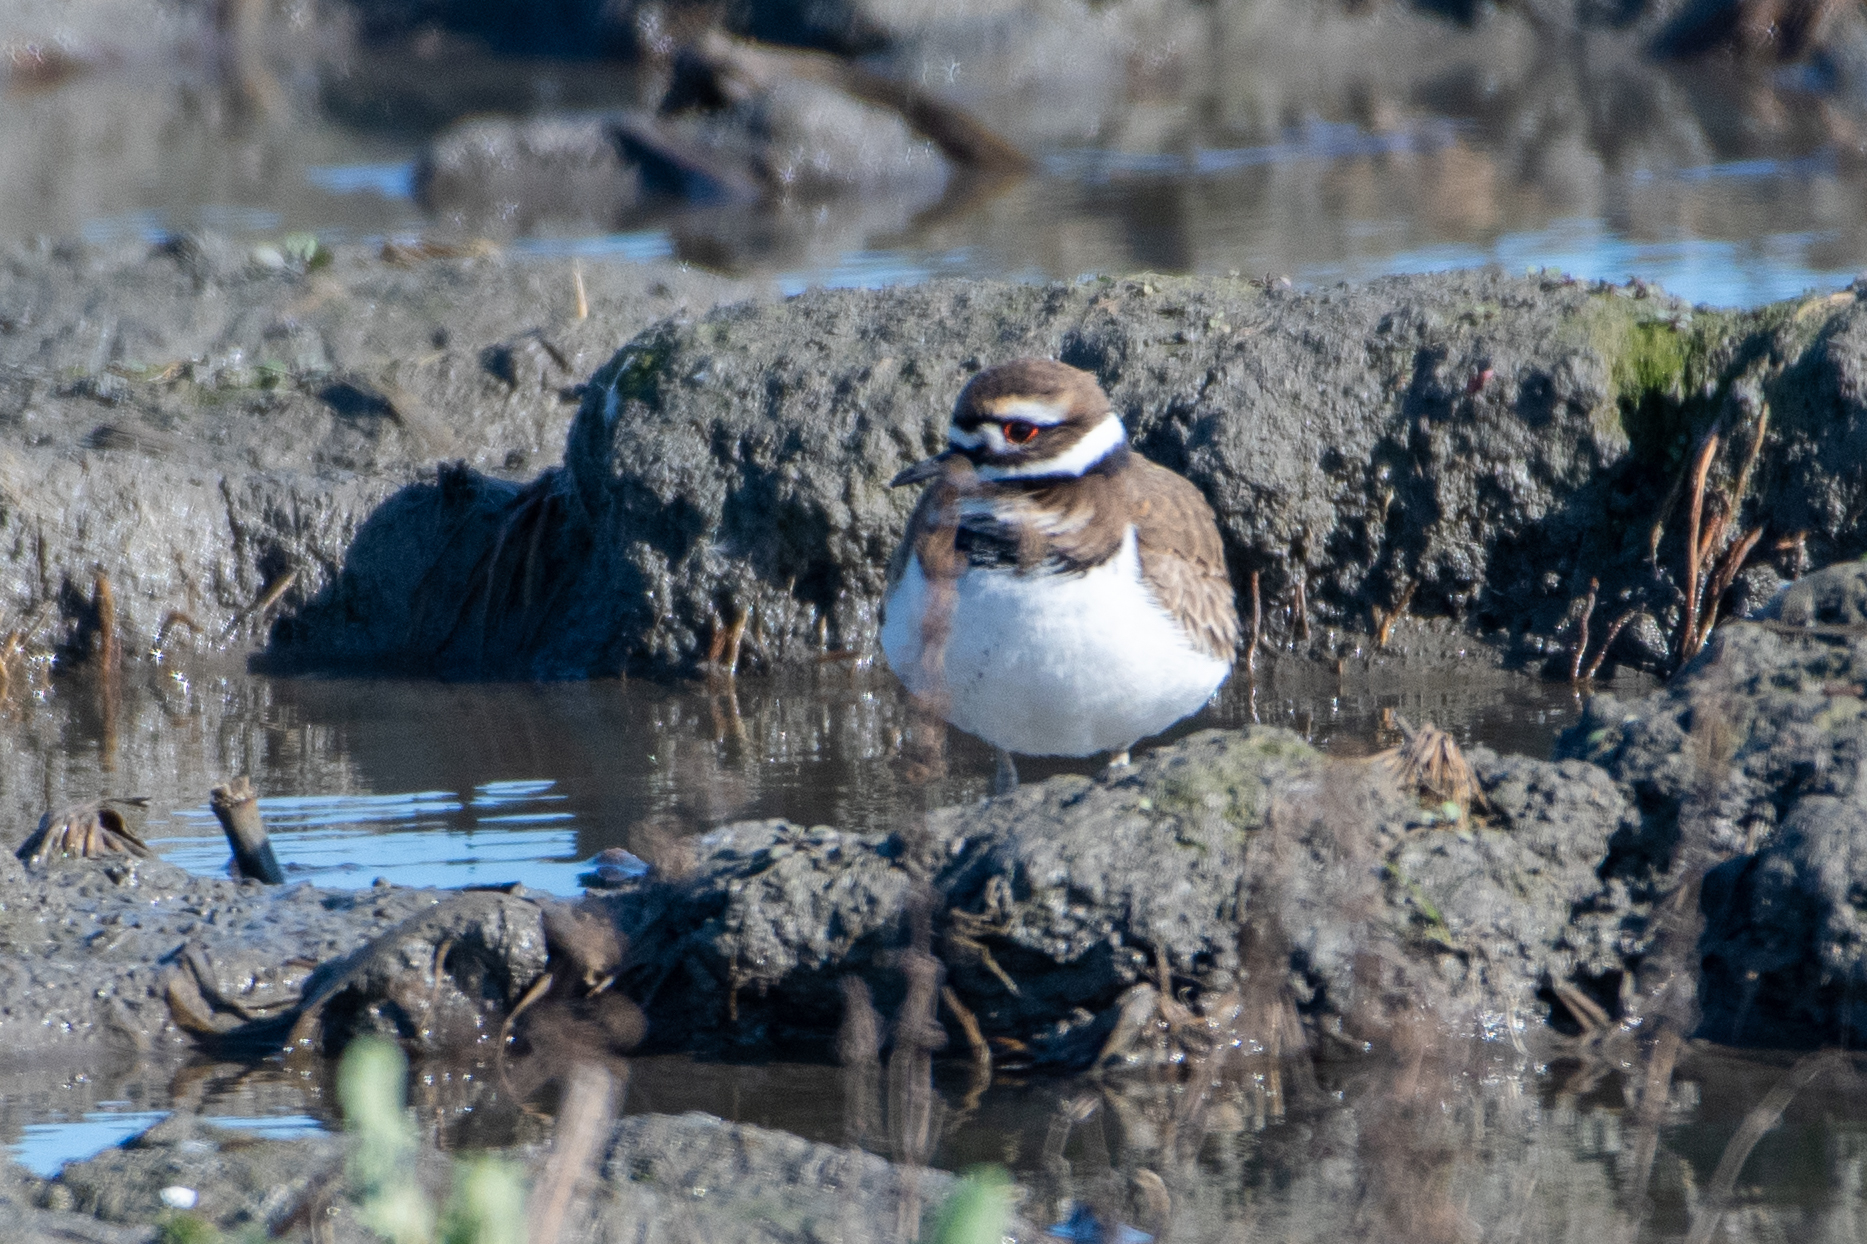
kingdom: Animalia
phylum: Chordata
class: Aves
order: Charadriiformes
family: Charadriidae
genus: Charadrius
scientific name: Charadrius vociferus
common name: Killdeer
